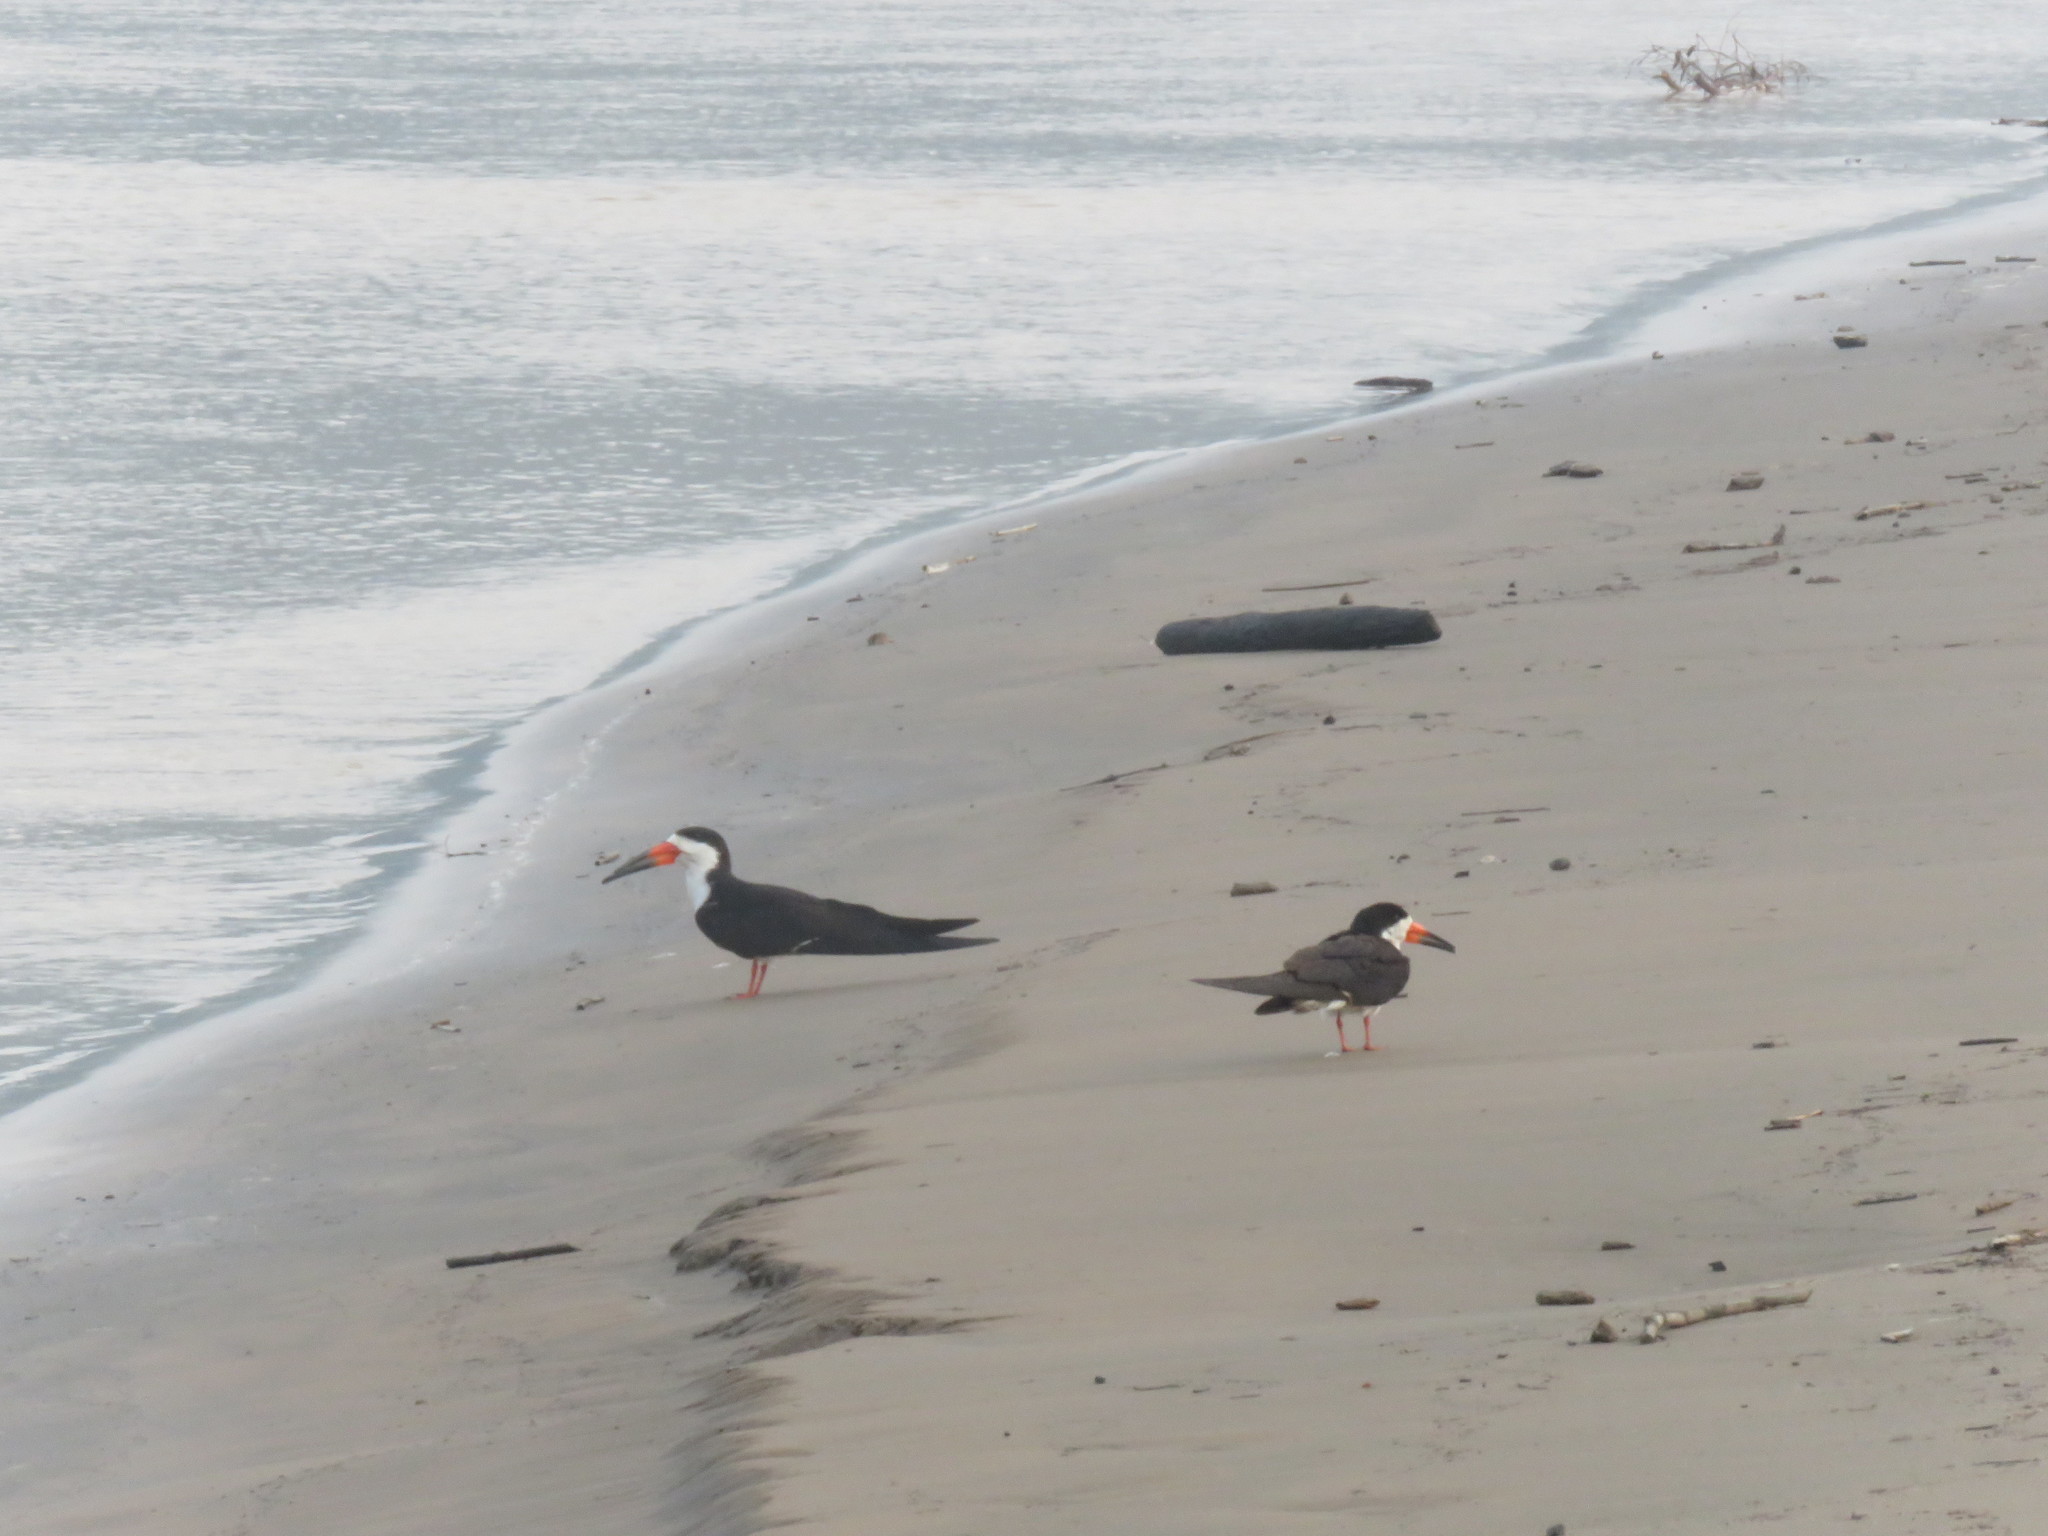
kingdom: Animalia
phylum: Chordata
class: Aves
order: Charadriiformes
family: Laridae
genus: Rynchops
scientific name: Rynchops niger
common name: Black skimmer
